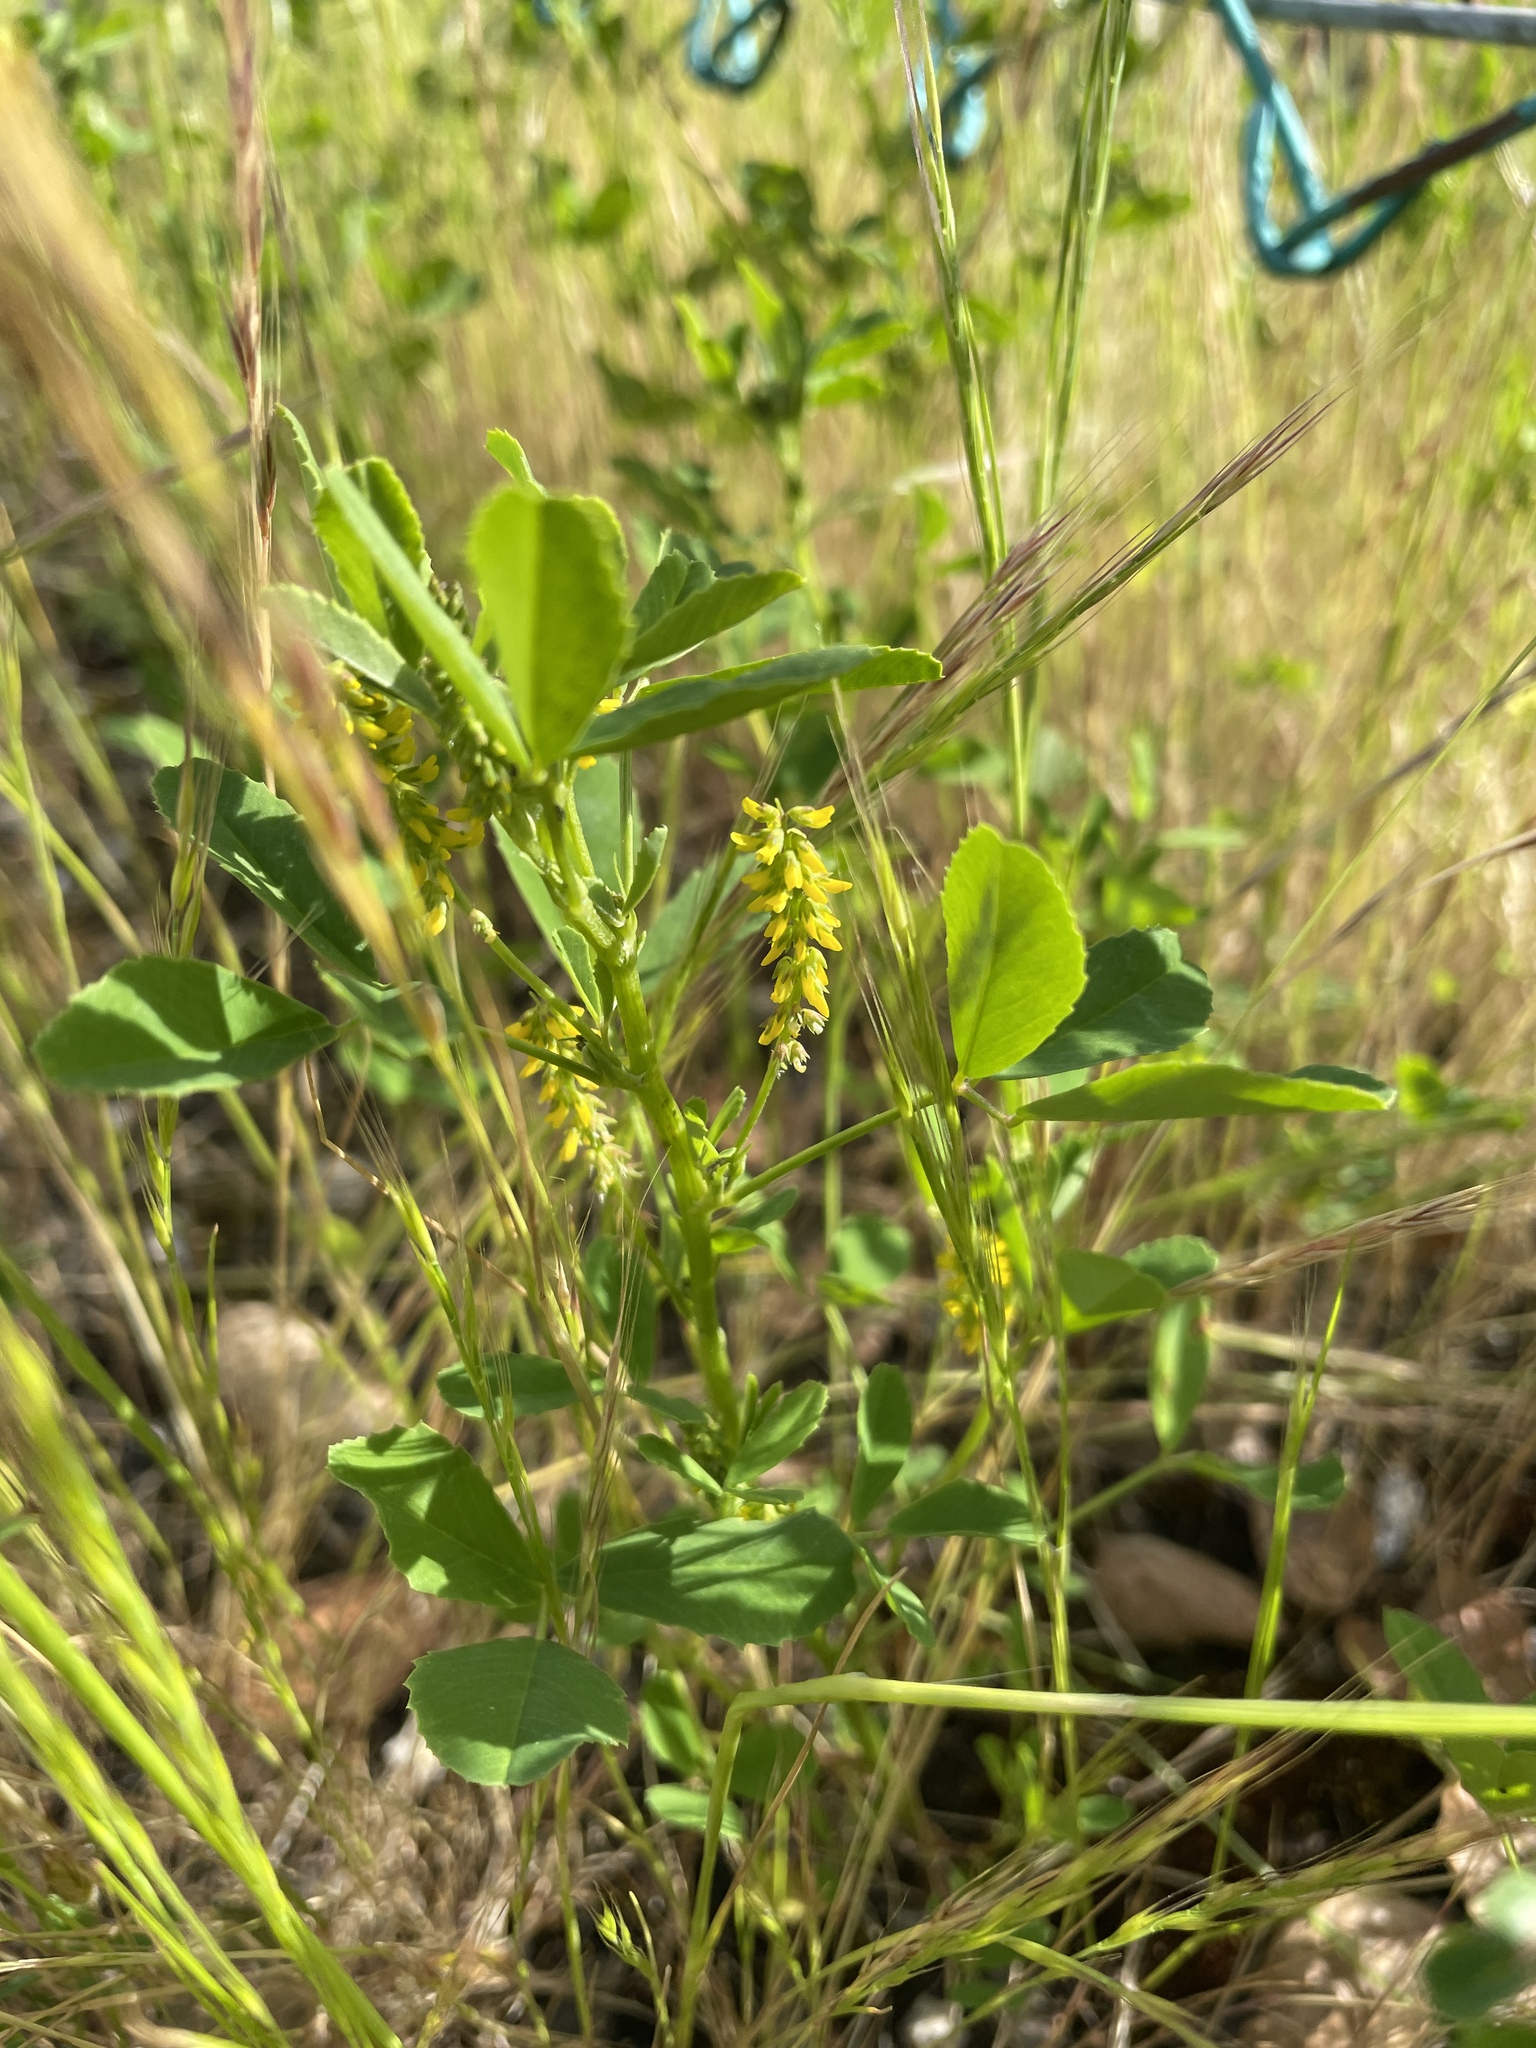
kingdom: Plantae
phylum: Tracheophyta
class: Magnoliopsida
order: Fabales
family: Fabaceae
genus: Melilotus
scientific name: Melilotus indicus
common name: Small melilot
